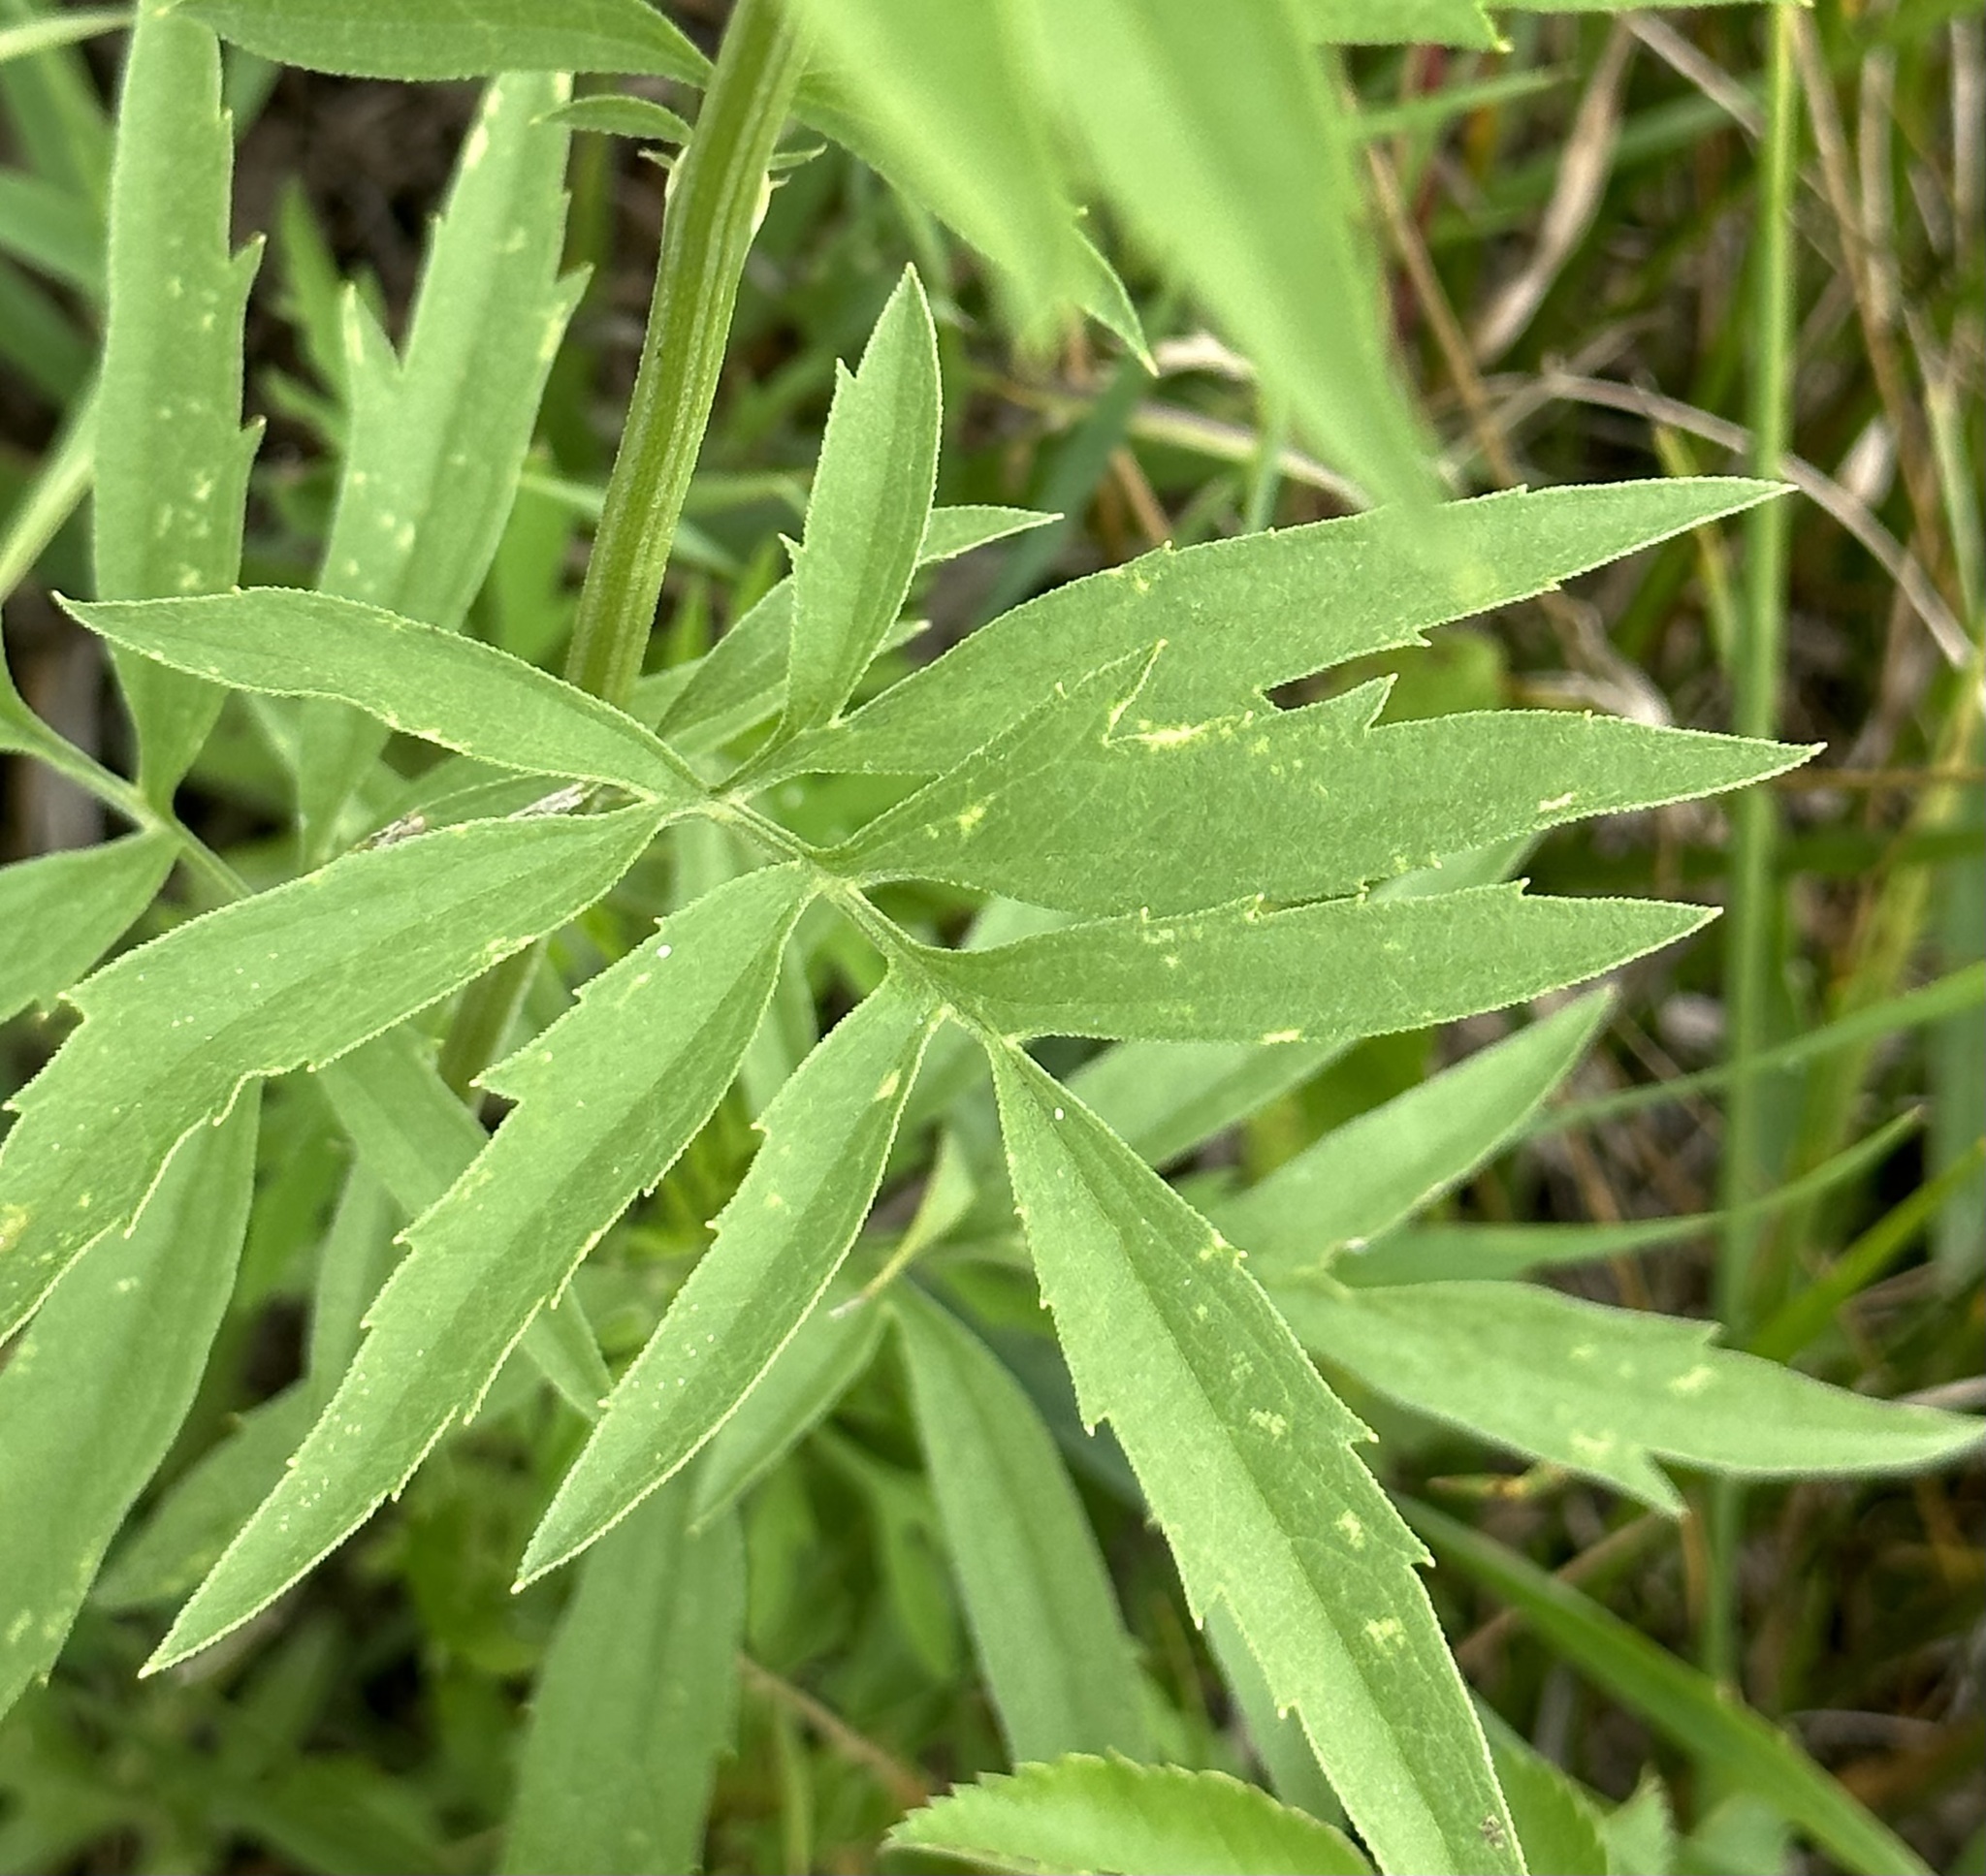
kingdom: Plantae
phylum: Tracheophyta
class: Magnoliopsida
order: Asterales
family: Asteraceae
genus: Ratibida
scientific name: Ratibida pinnata
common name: Drooping prairie-coneflower
